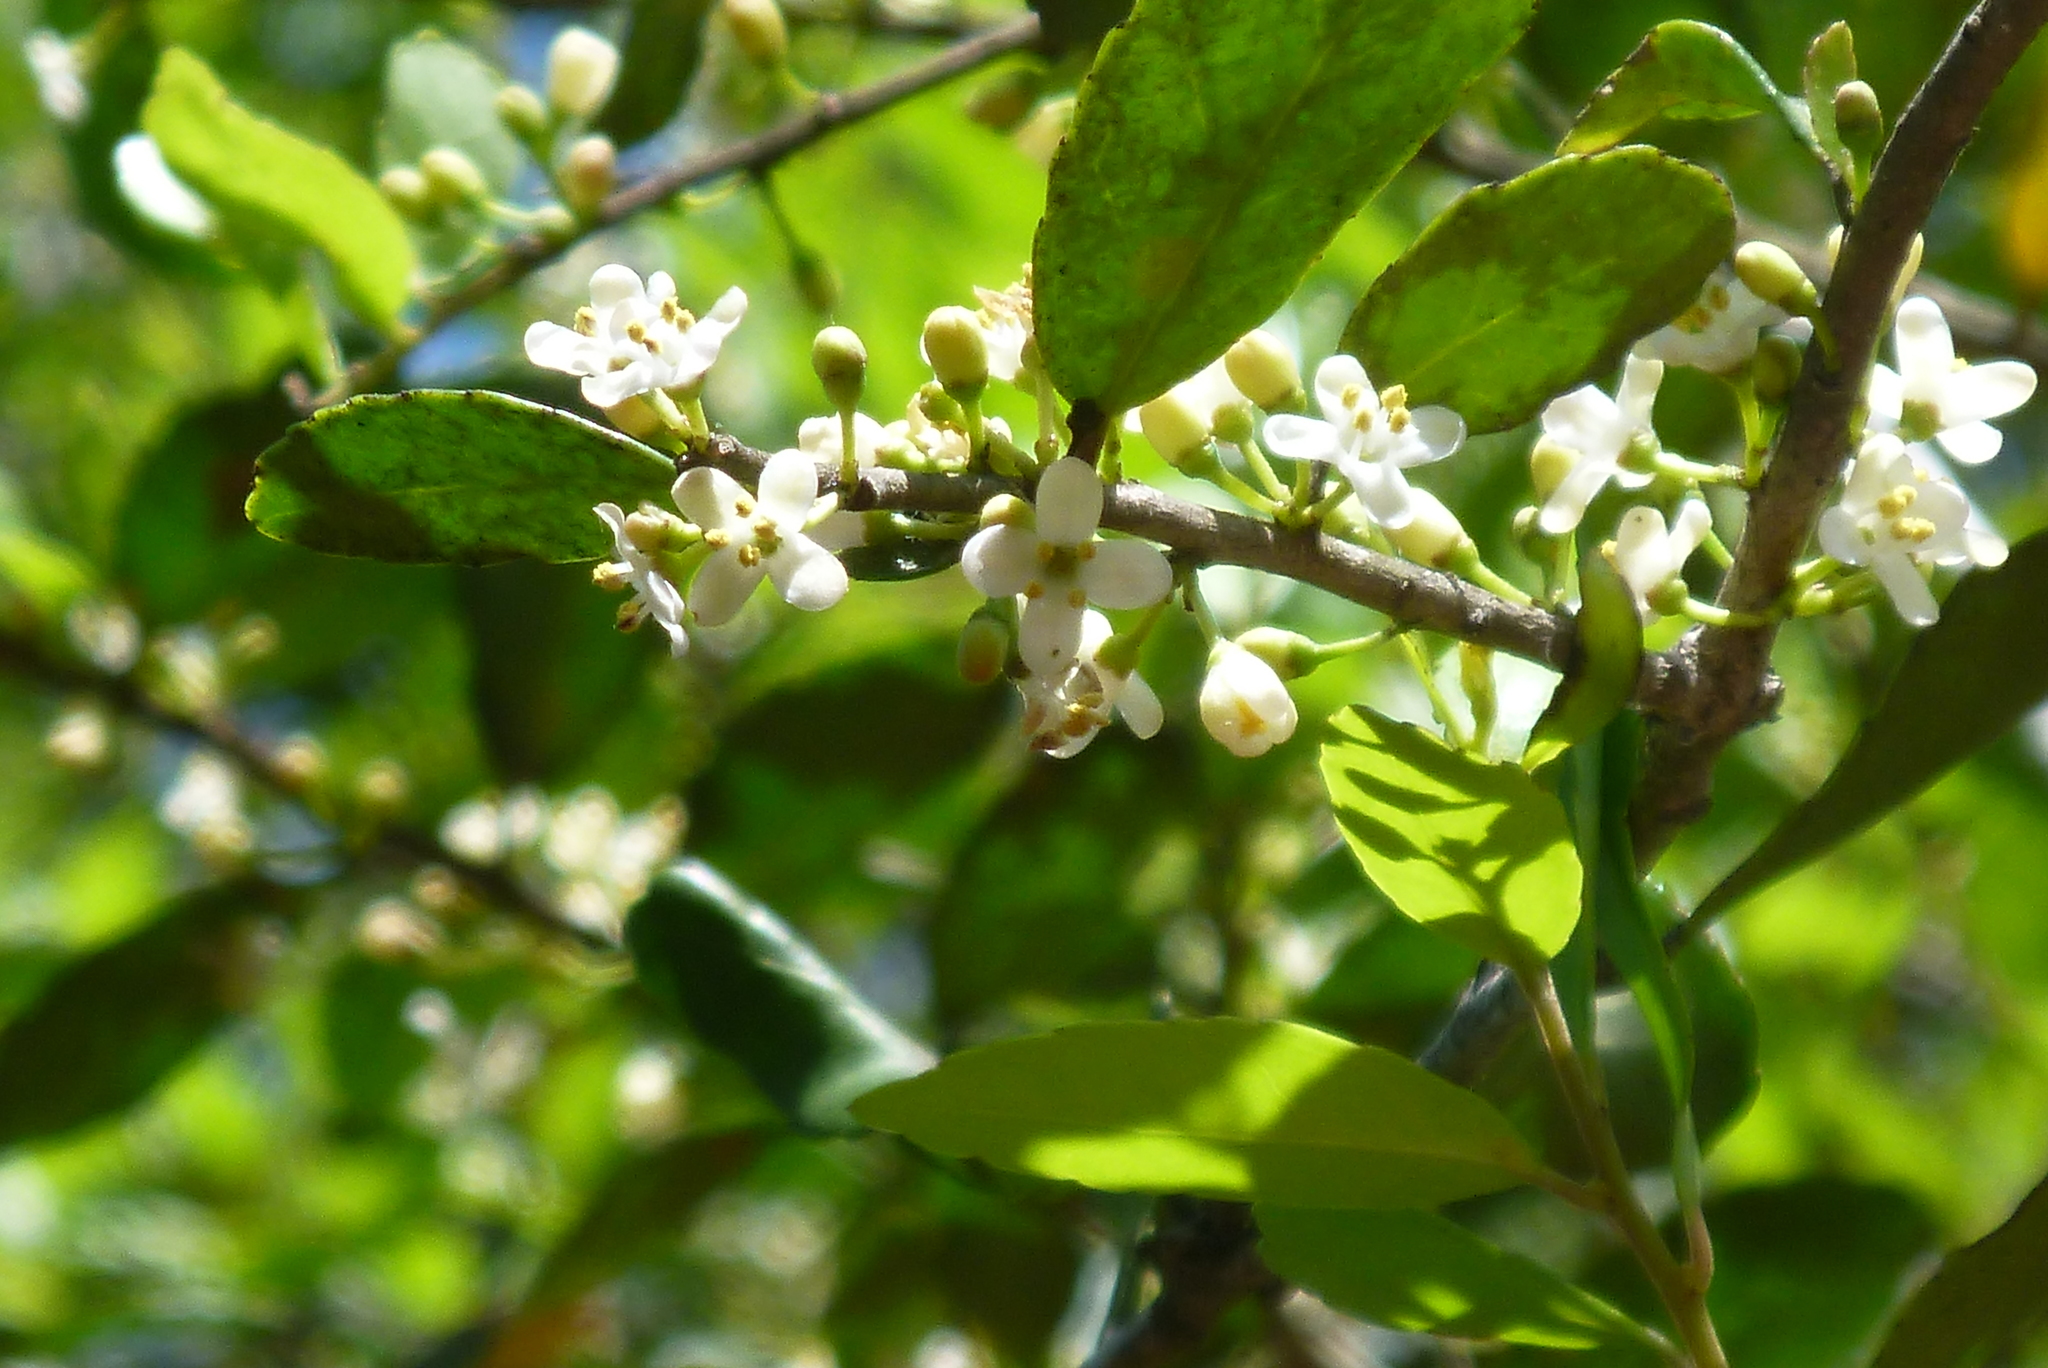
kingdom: Plantae
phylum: Tracheophyta
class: Magnoliopsida
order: Aquifoliales
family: Aquifoliaceae
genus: Ilex
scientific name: Ilex vomitoria
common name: Yaupon holly
